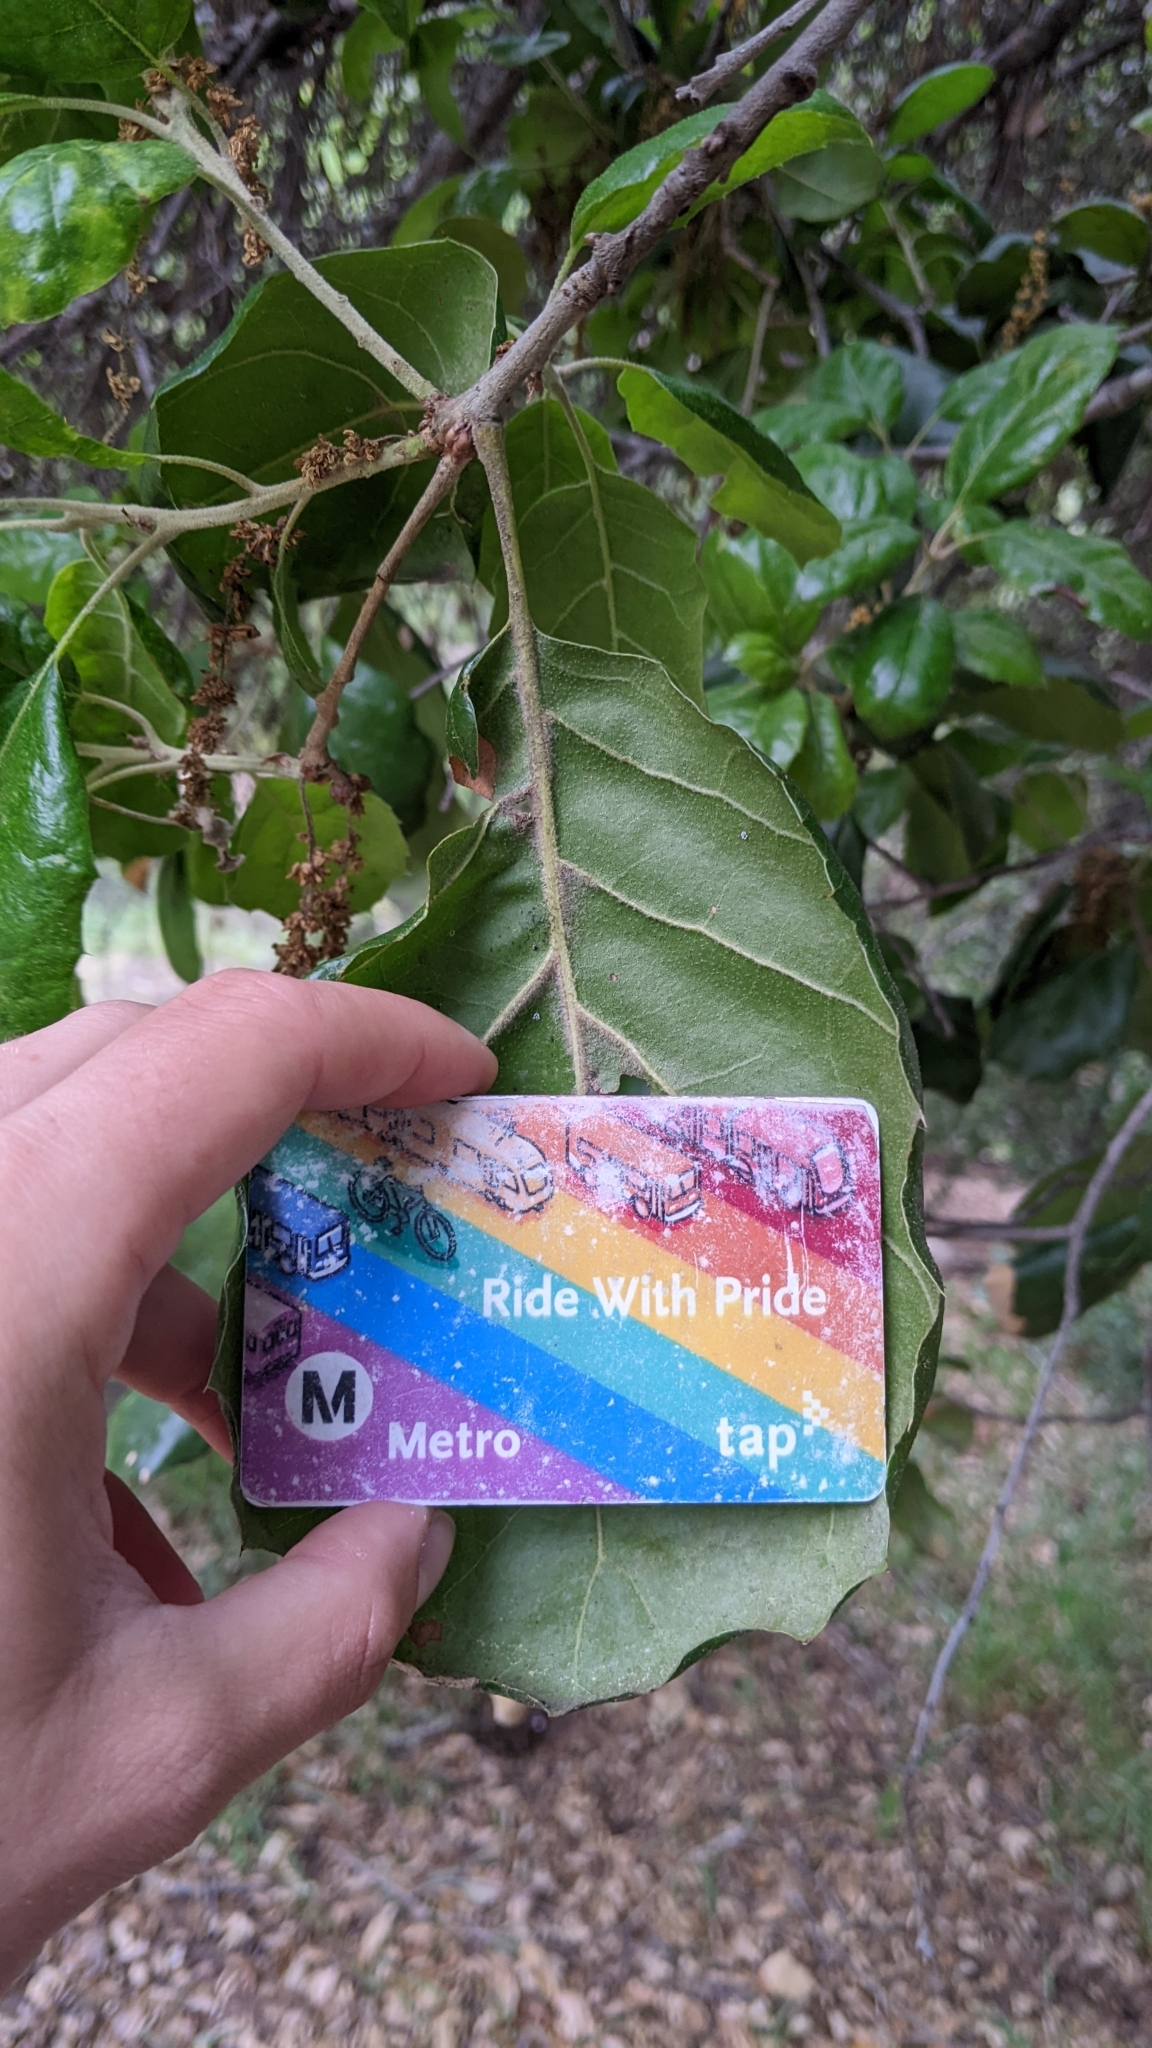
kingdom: Plantae
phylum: Tracheophyta
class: Magnoliopsida
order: Fagales
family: Fagaceae
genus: Quercus
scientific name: Quercus agrifolia
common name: California live oak
